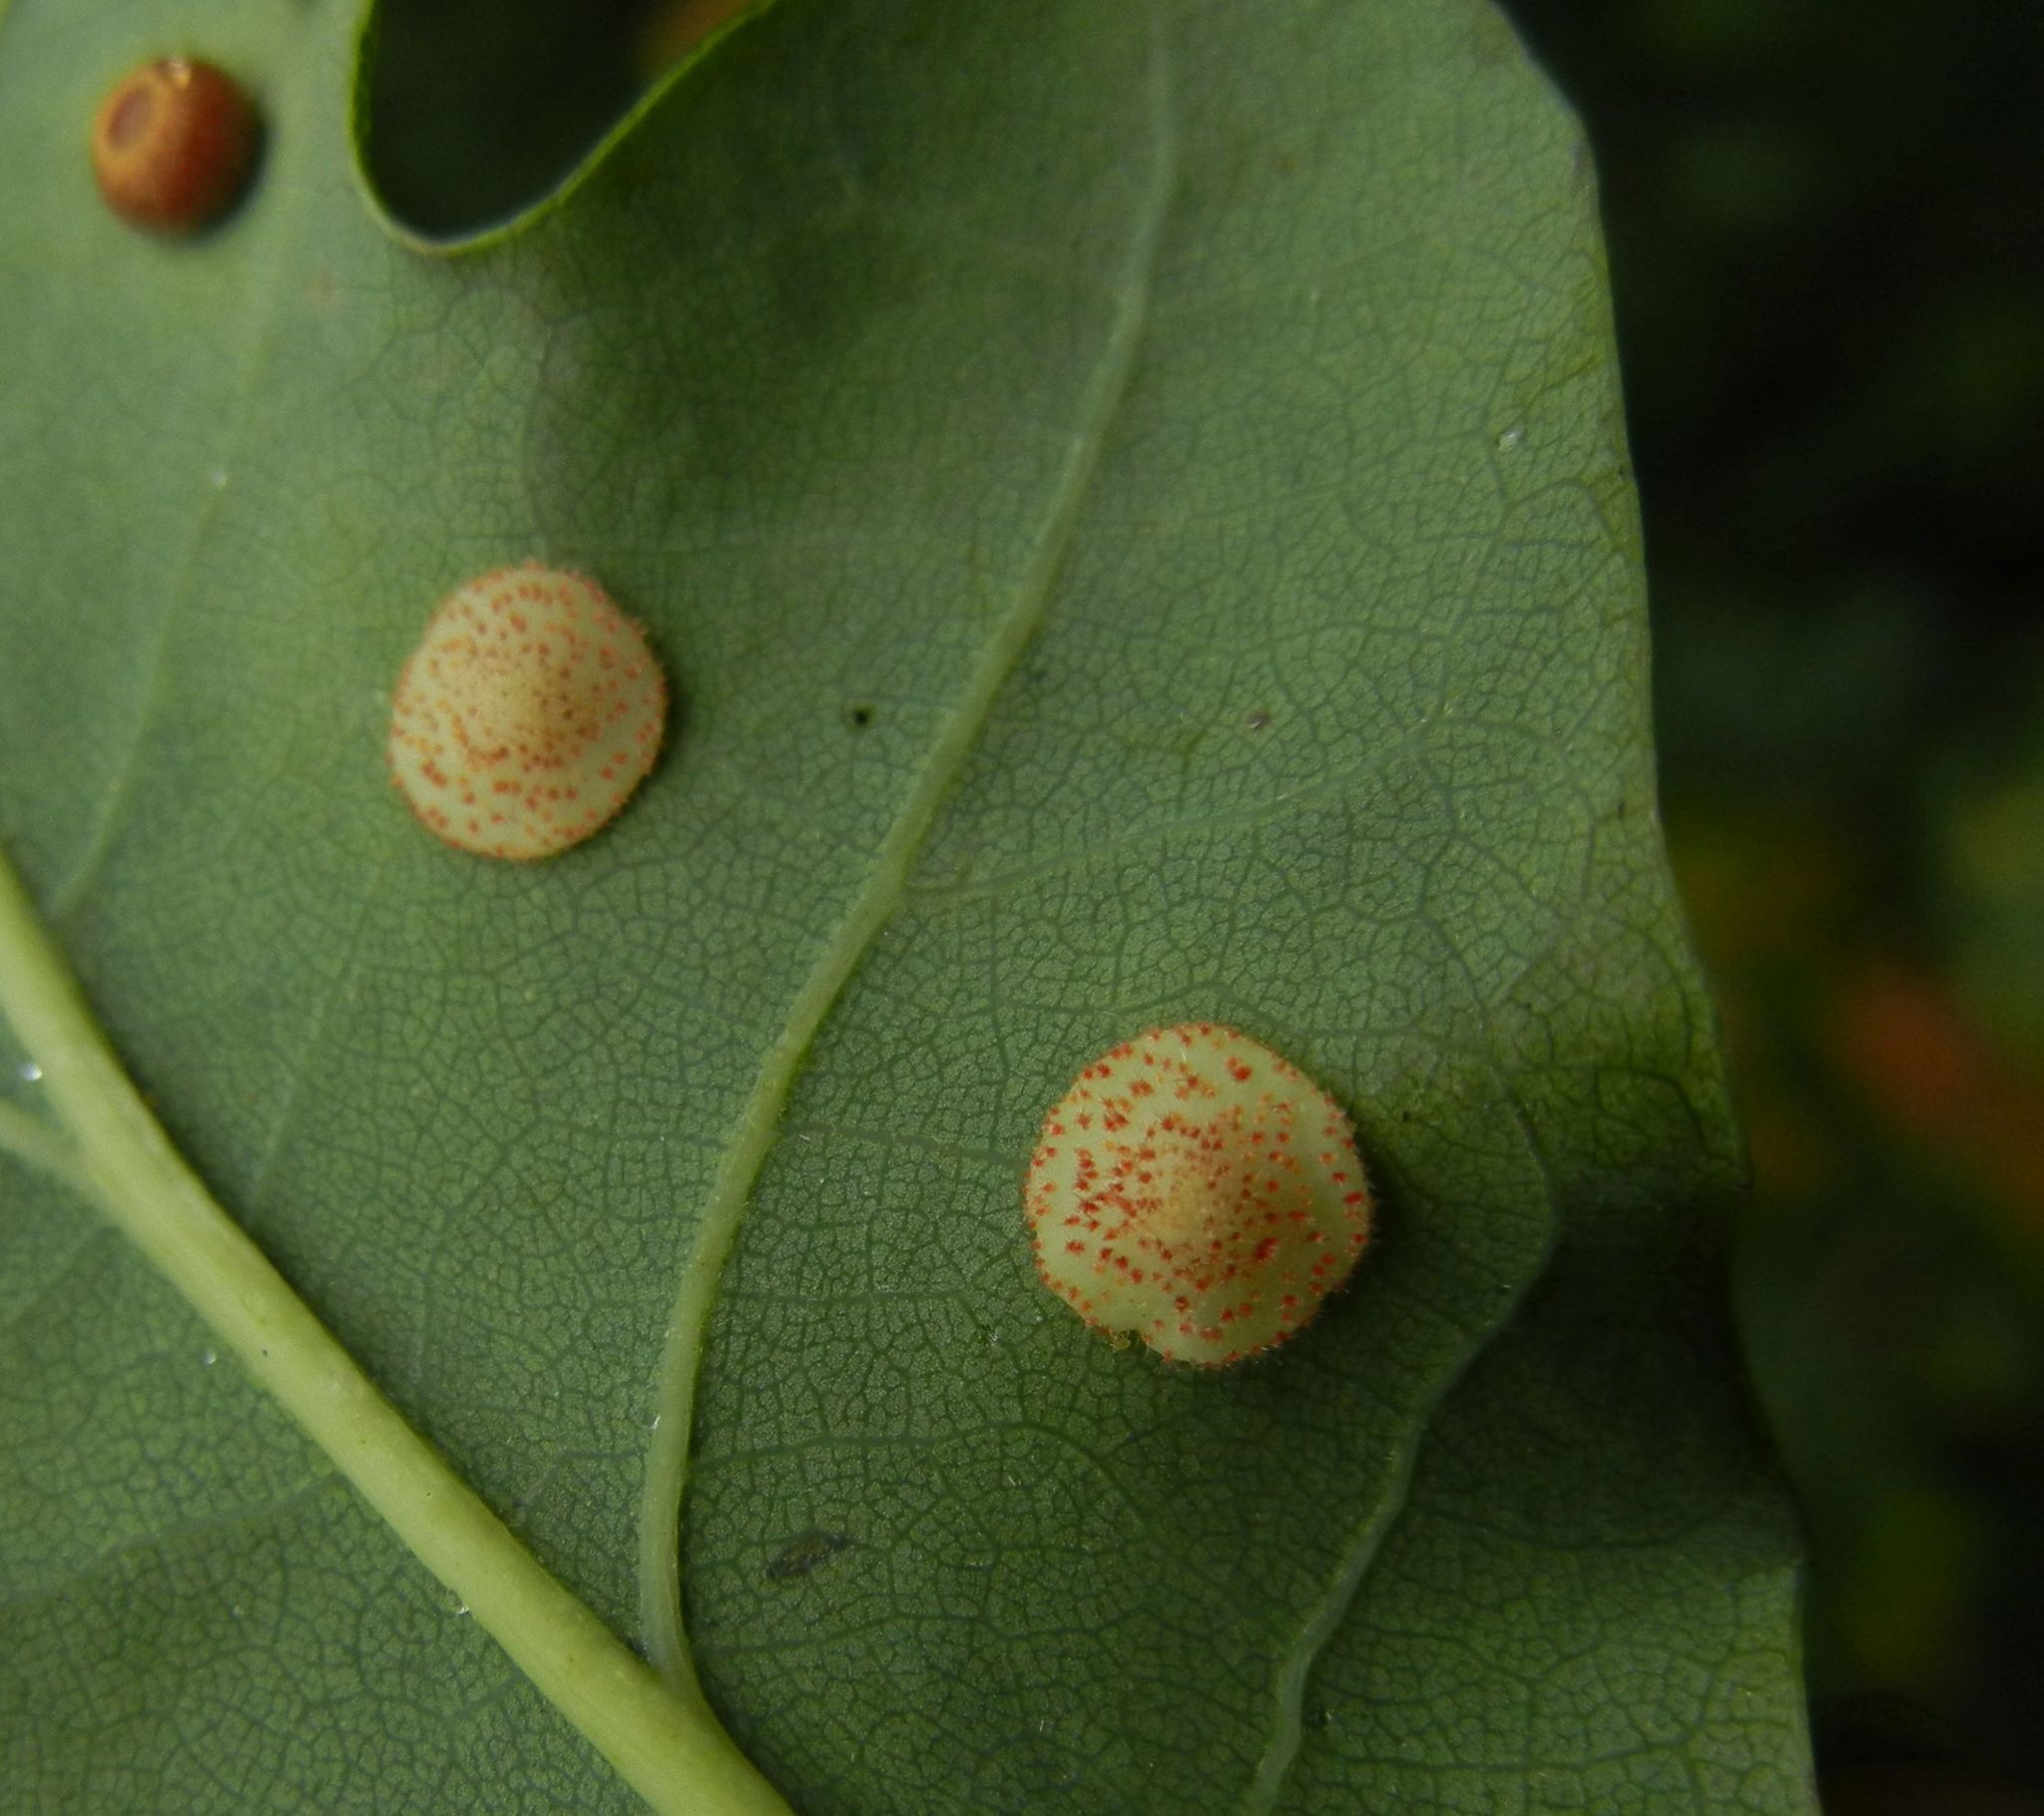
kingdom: Animalia
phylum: Arthropoda
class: Insecta
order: Hymenoptera
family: Cynipidae
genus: Neuroterus
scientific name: Neuroterus quercusbaccarum
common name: Common spangle gall
